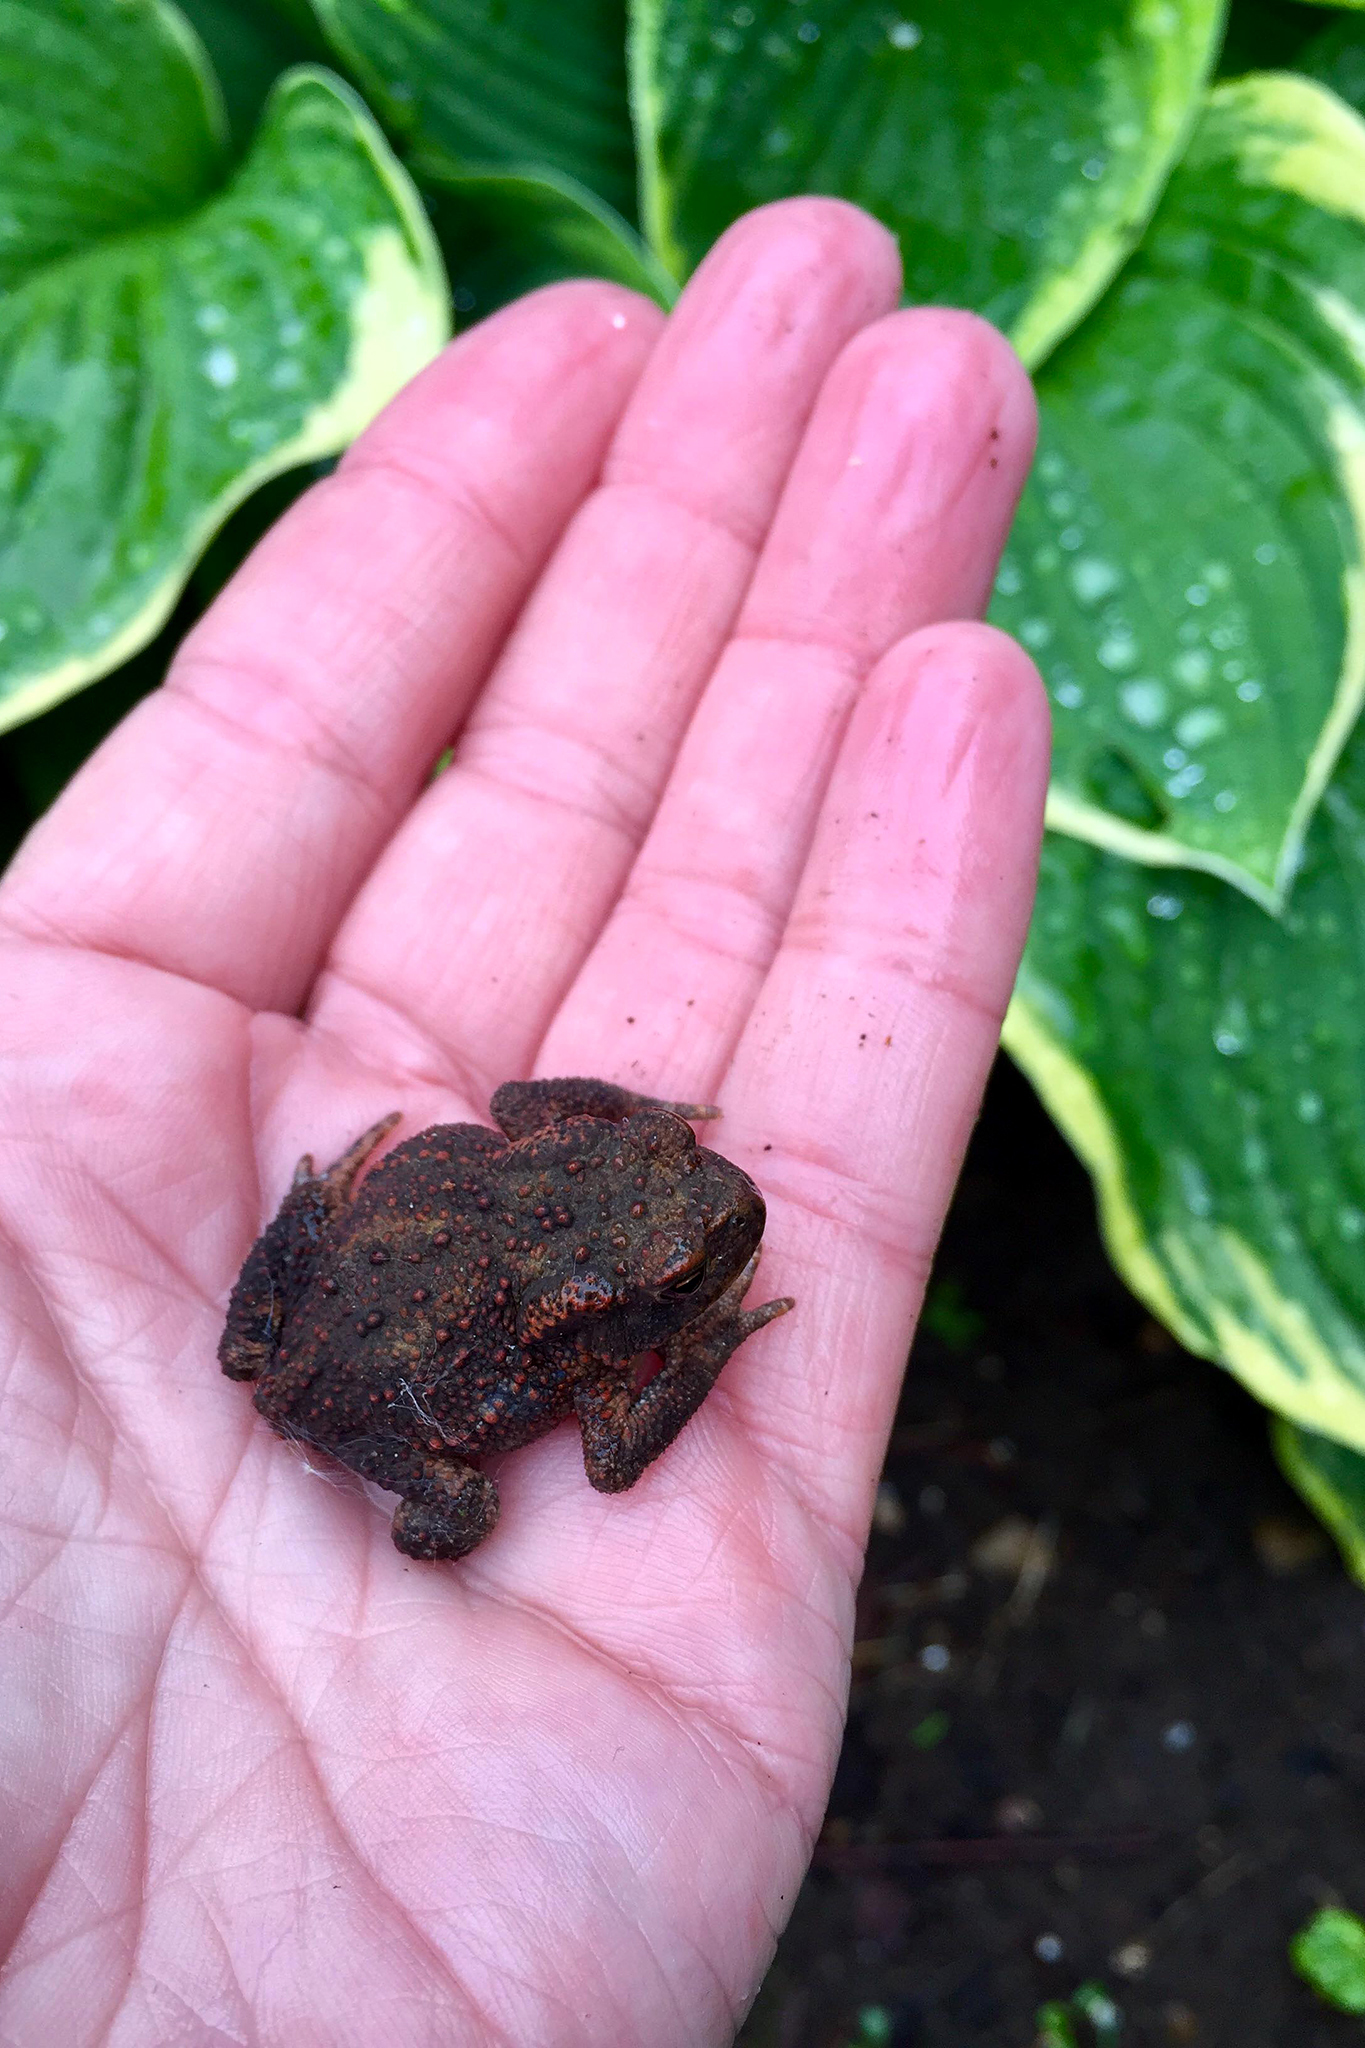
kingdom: Animalia
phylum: Chordata
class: Amphibia
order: Anura
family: Bufonidae
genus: Bufo
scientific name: Bufo bufo
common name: Common toad
